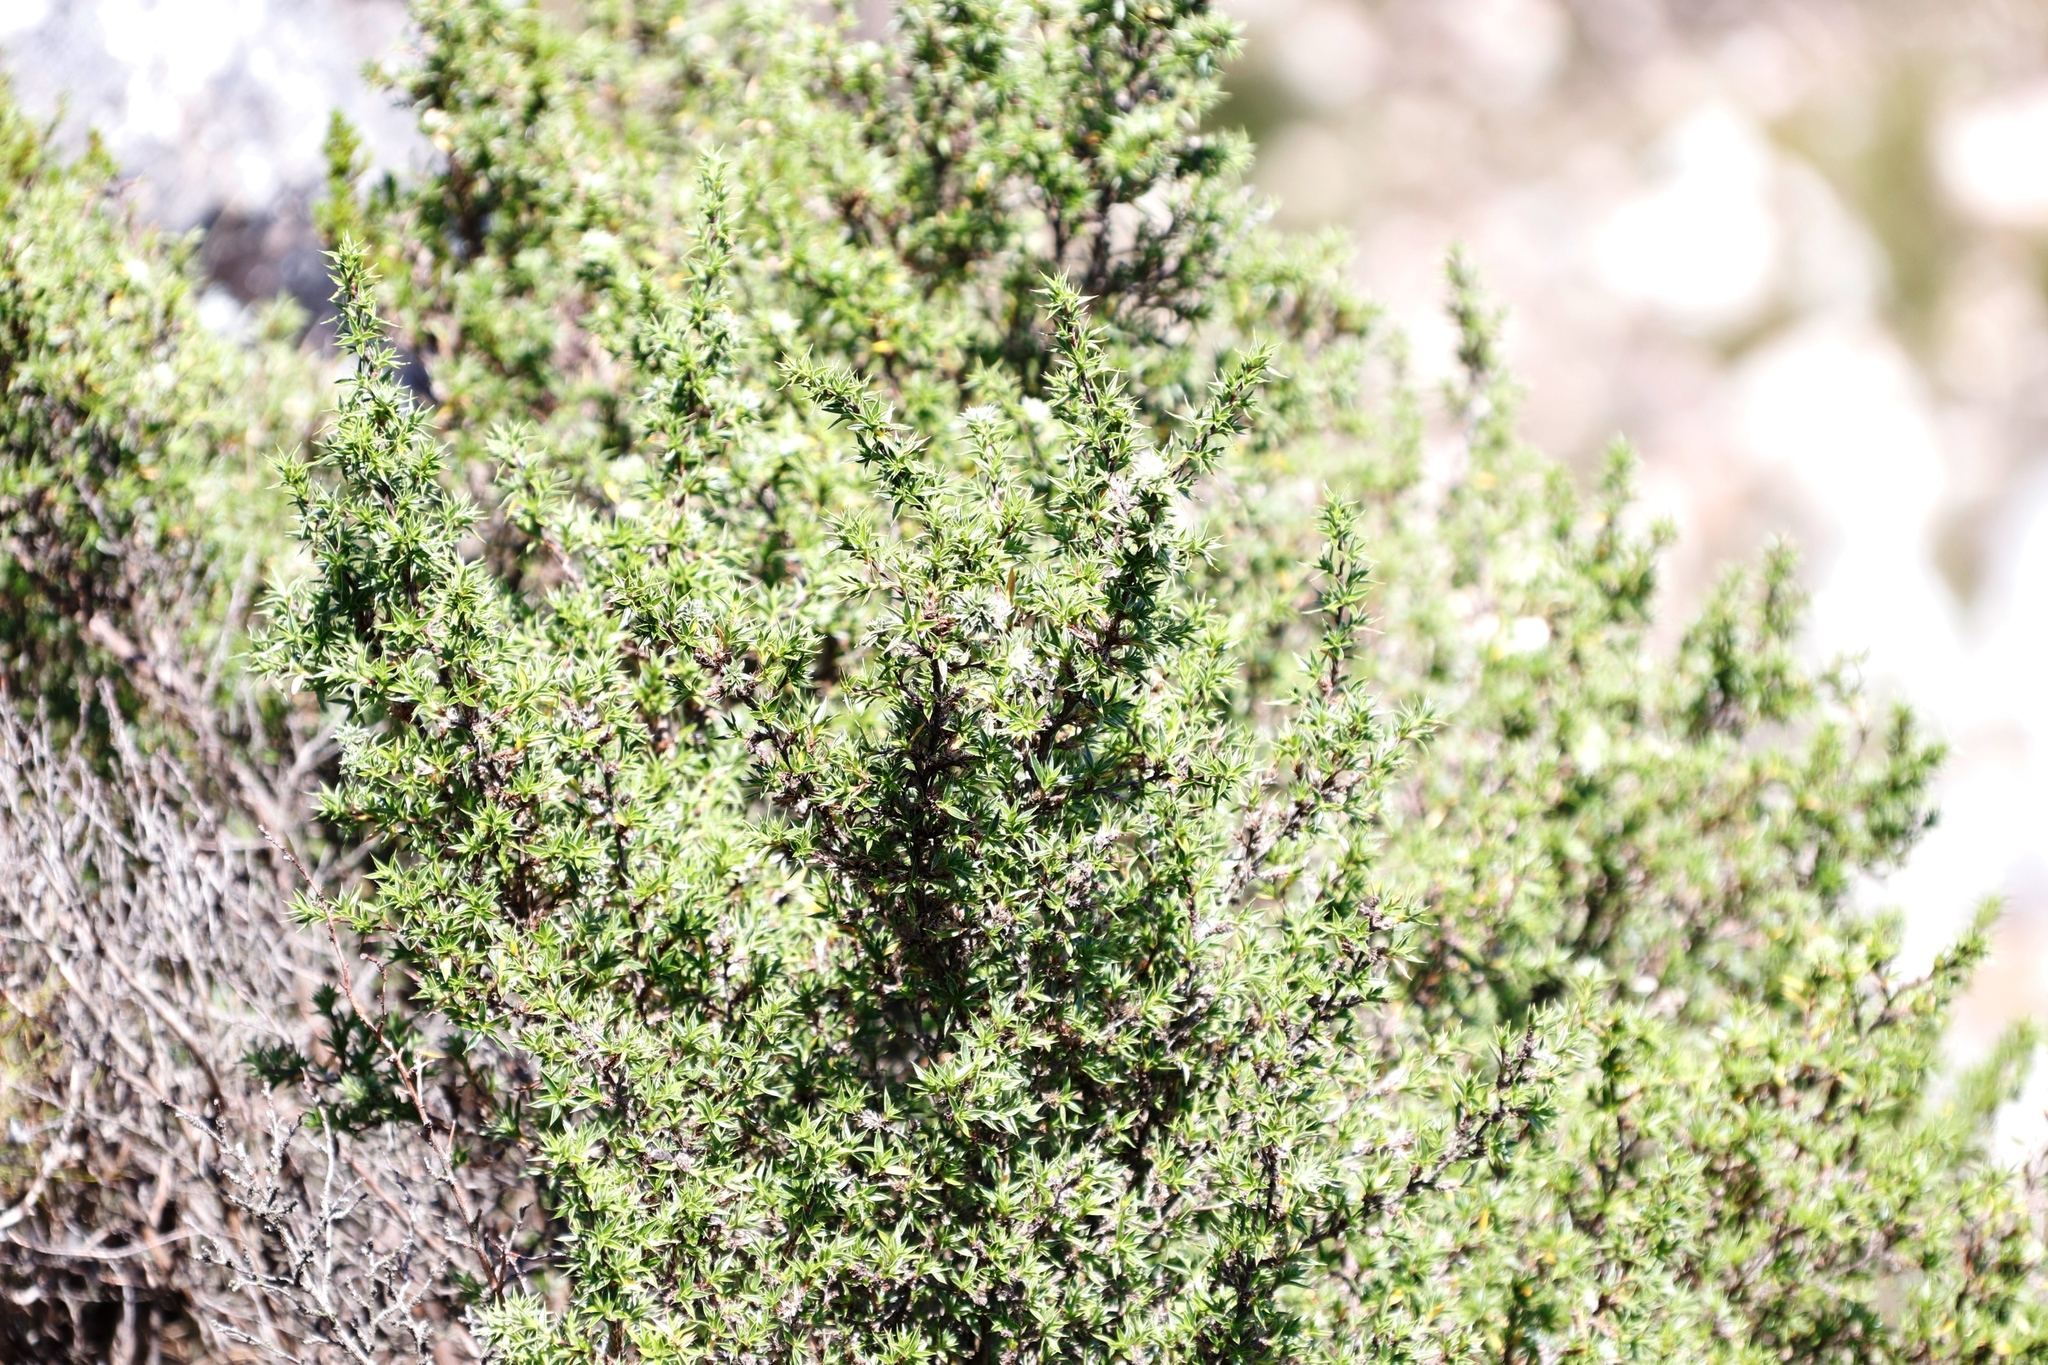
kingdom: Plantae
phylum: Tracheophyta
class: Magnoliopsida
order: Rosales
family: Rosaceae
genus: Cliffortia
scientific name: Cliffortia ruscifolia
